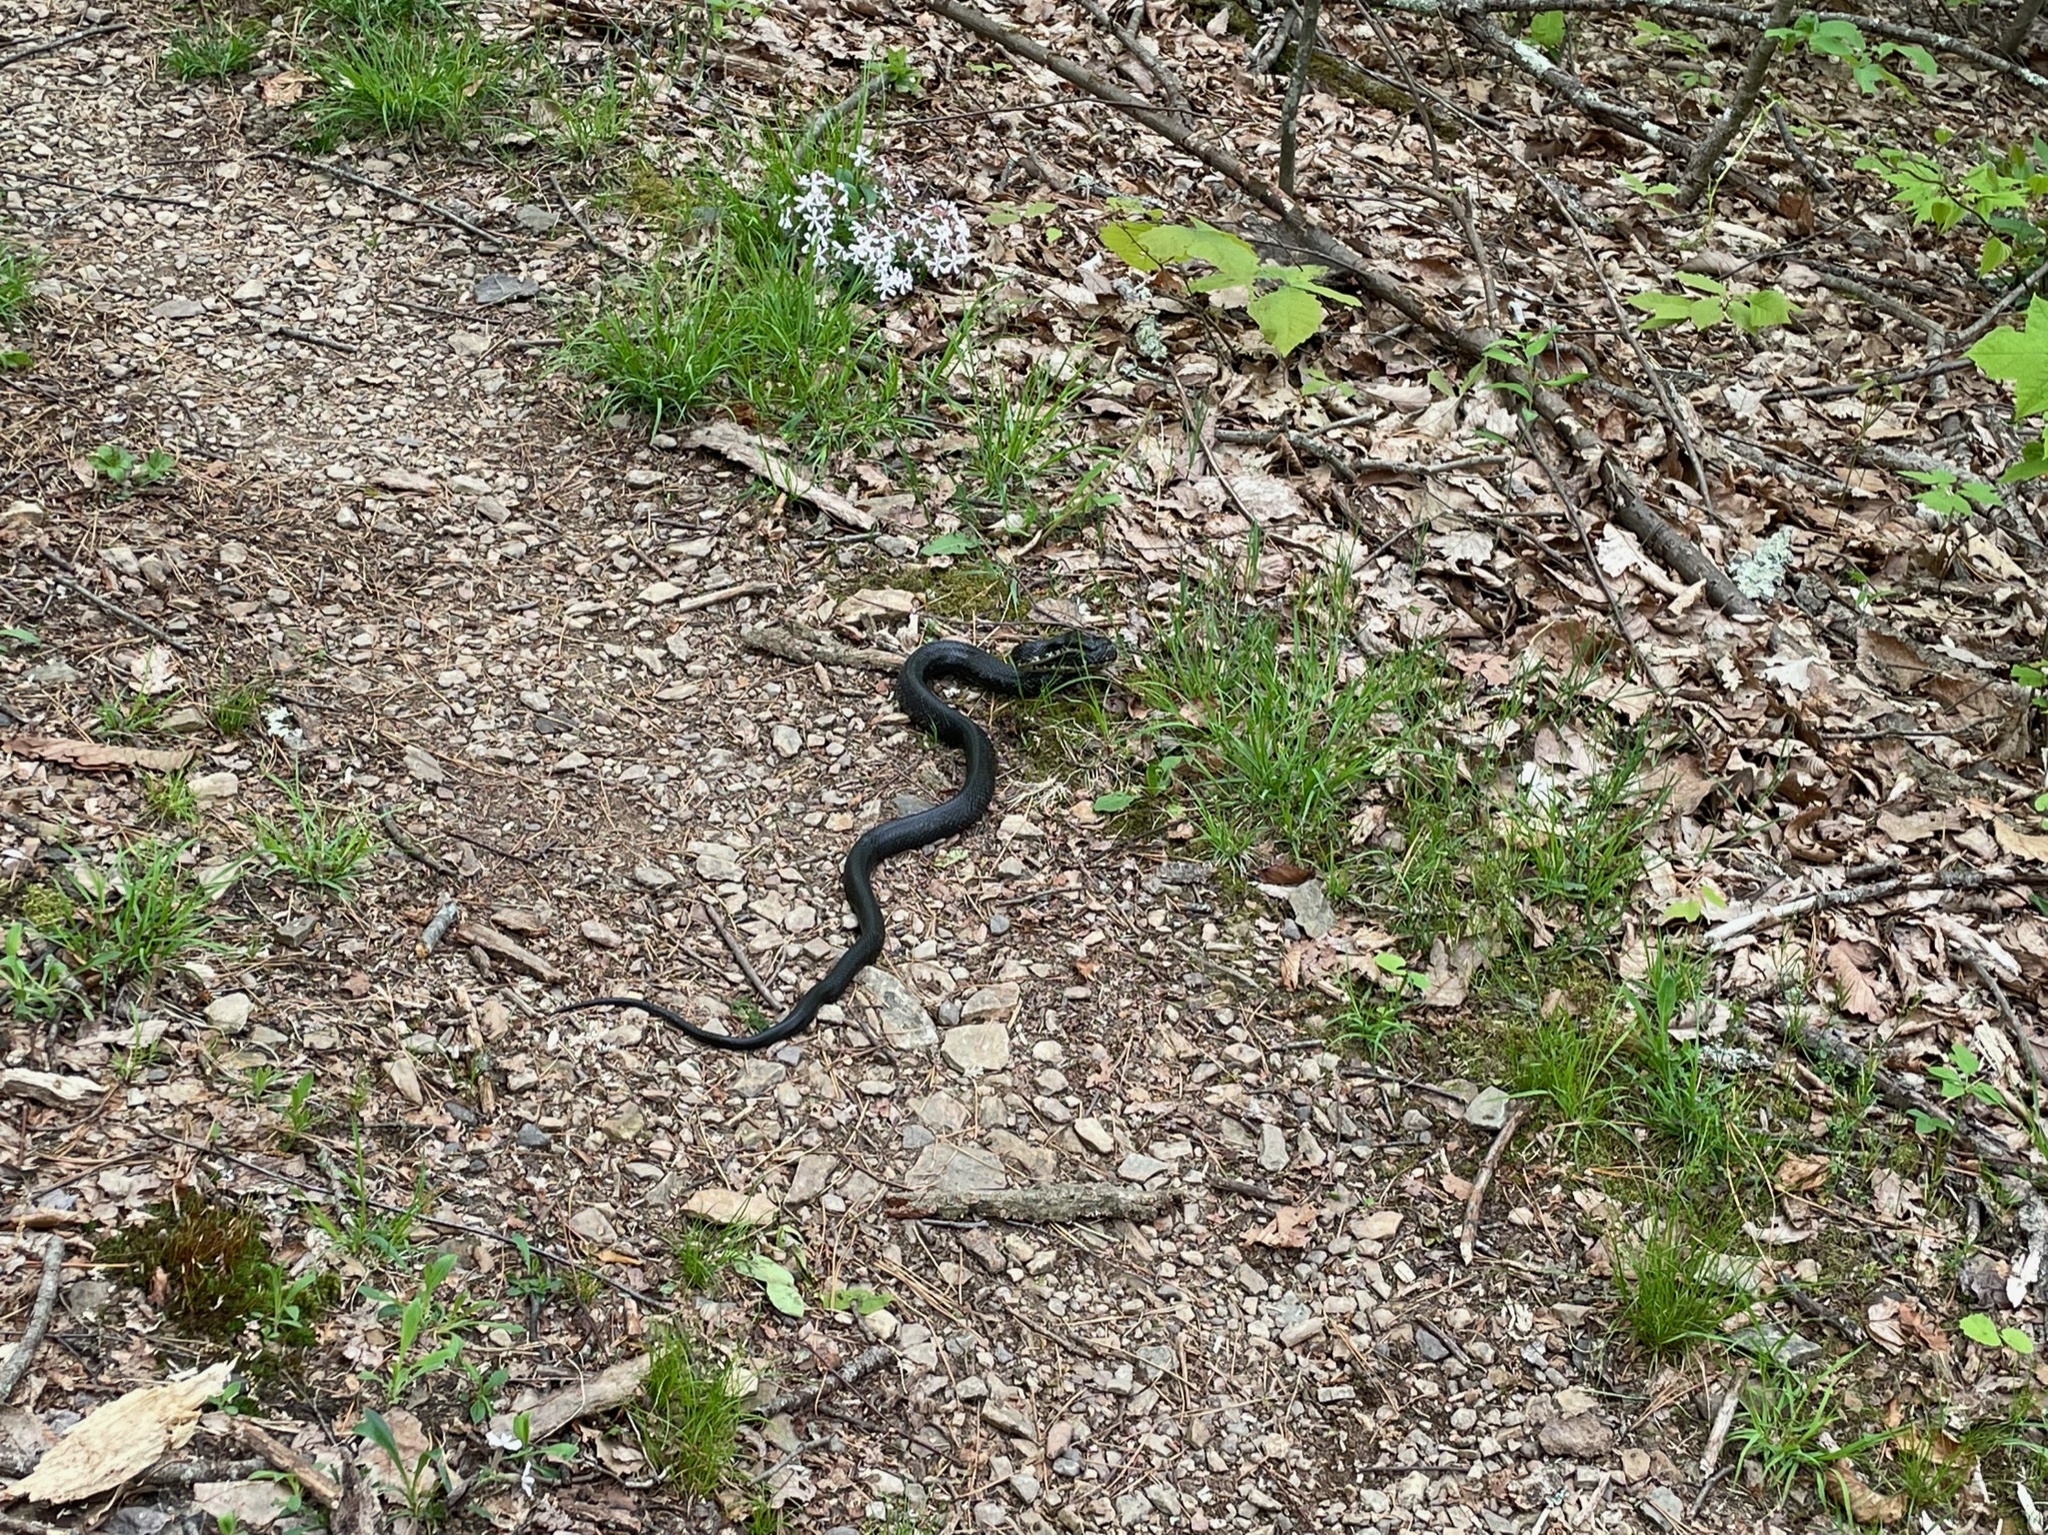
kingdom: Animalia
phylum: Chordata
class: Squamata
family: Colubridae
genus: Pantherophis
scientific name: Pantherophis alleghaniensis
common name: Eastern rat snake
